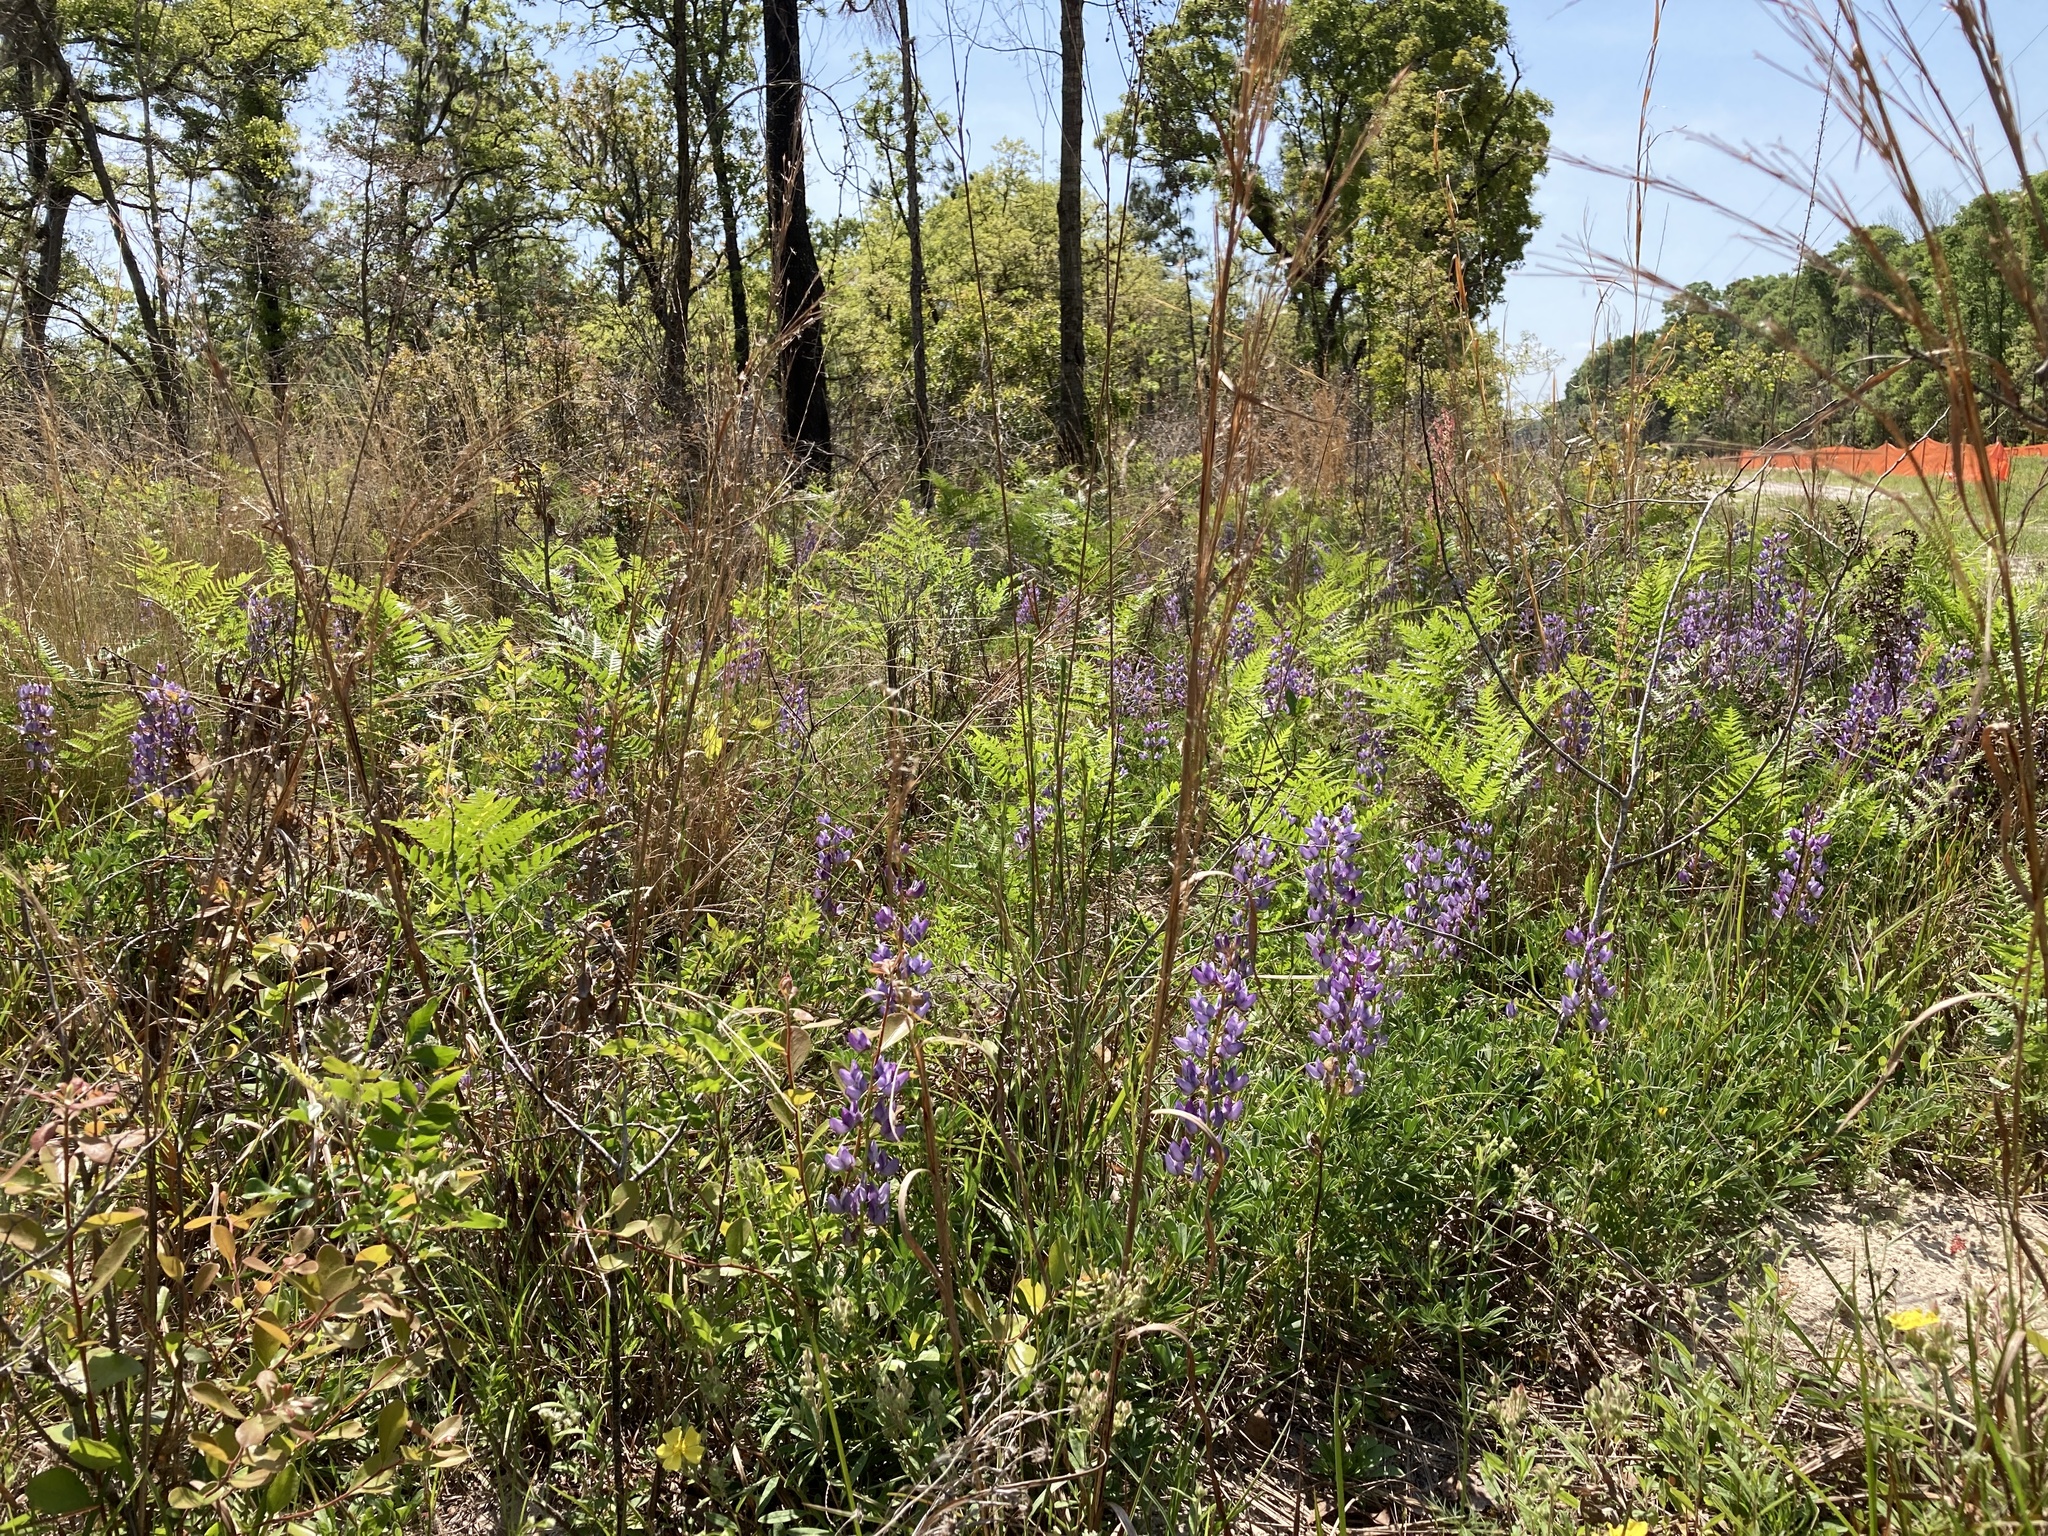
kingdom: Plantae
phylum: Tracheophyta
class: Magnoliopsida
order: Fabales
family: Fabaceae
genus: Lupinus
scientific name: Lupinus perennis
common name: Sundial lupine
